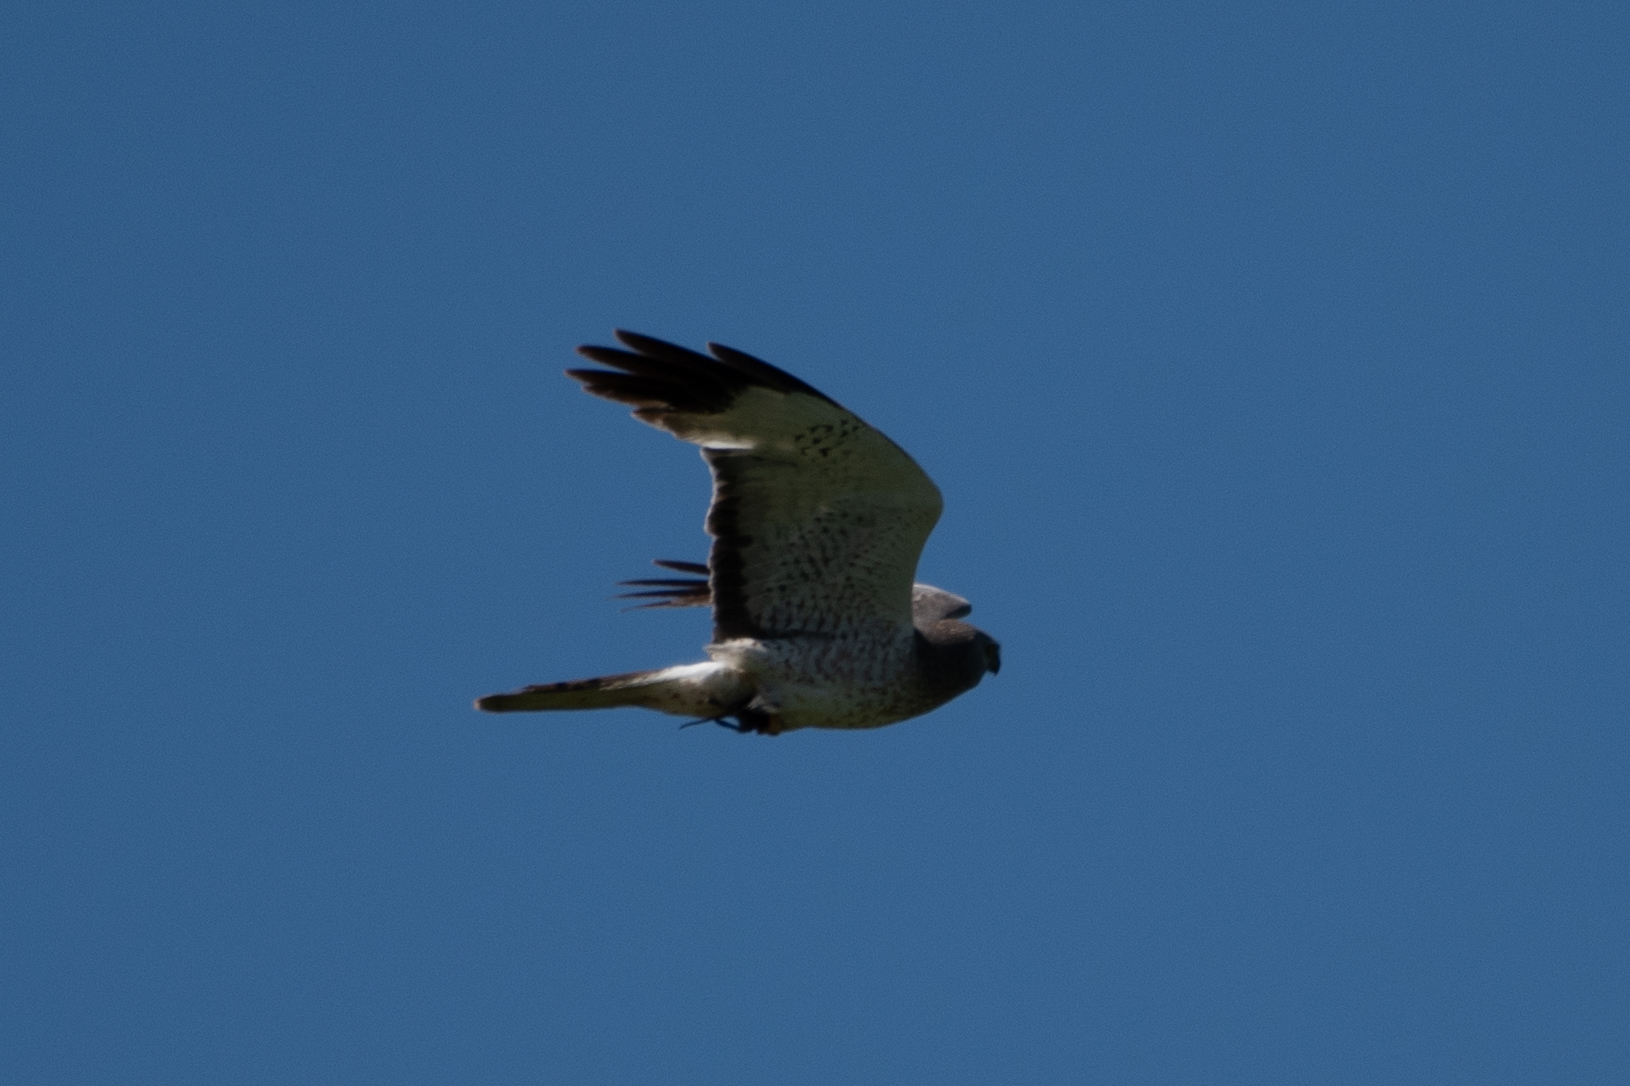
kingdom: Animalia
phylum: Chordata
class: Aves
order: Accipitriformes
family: Accipitridae
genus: Circus
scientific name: Circus cyaneus
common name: Hen harrier
